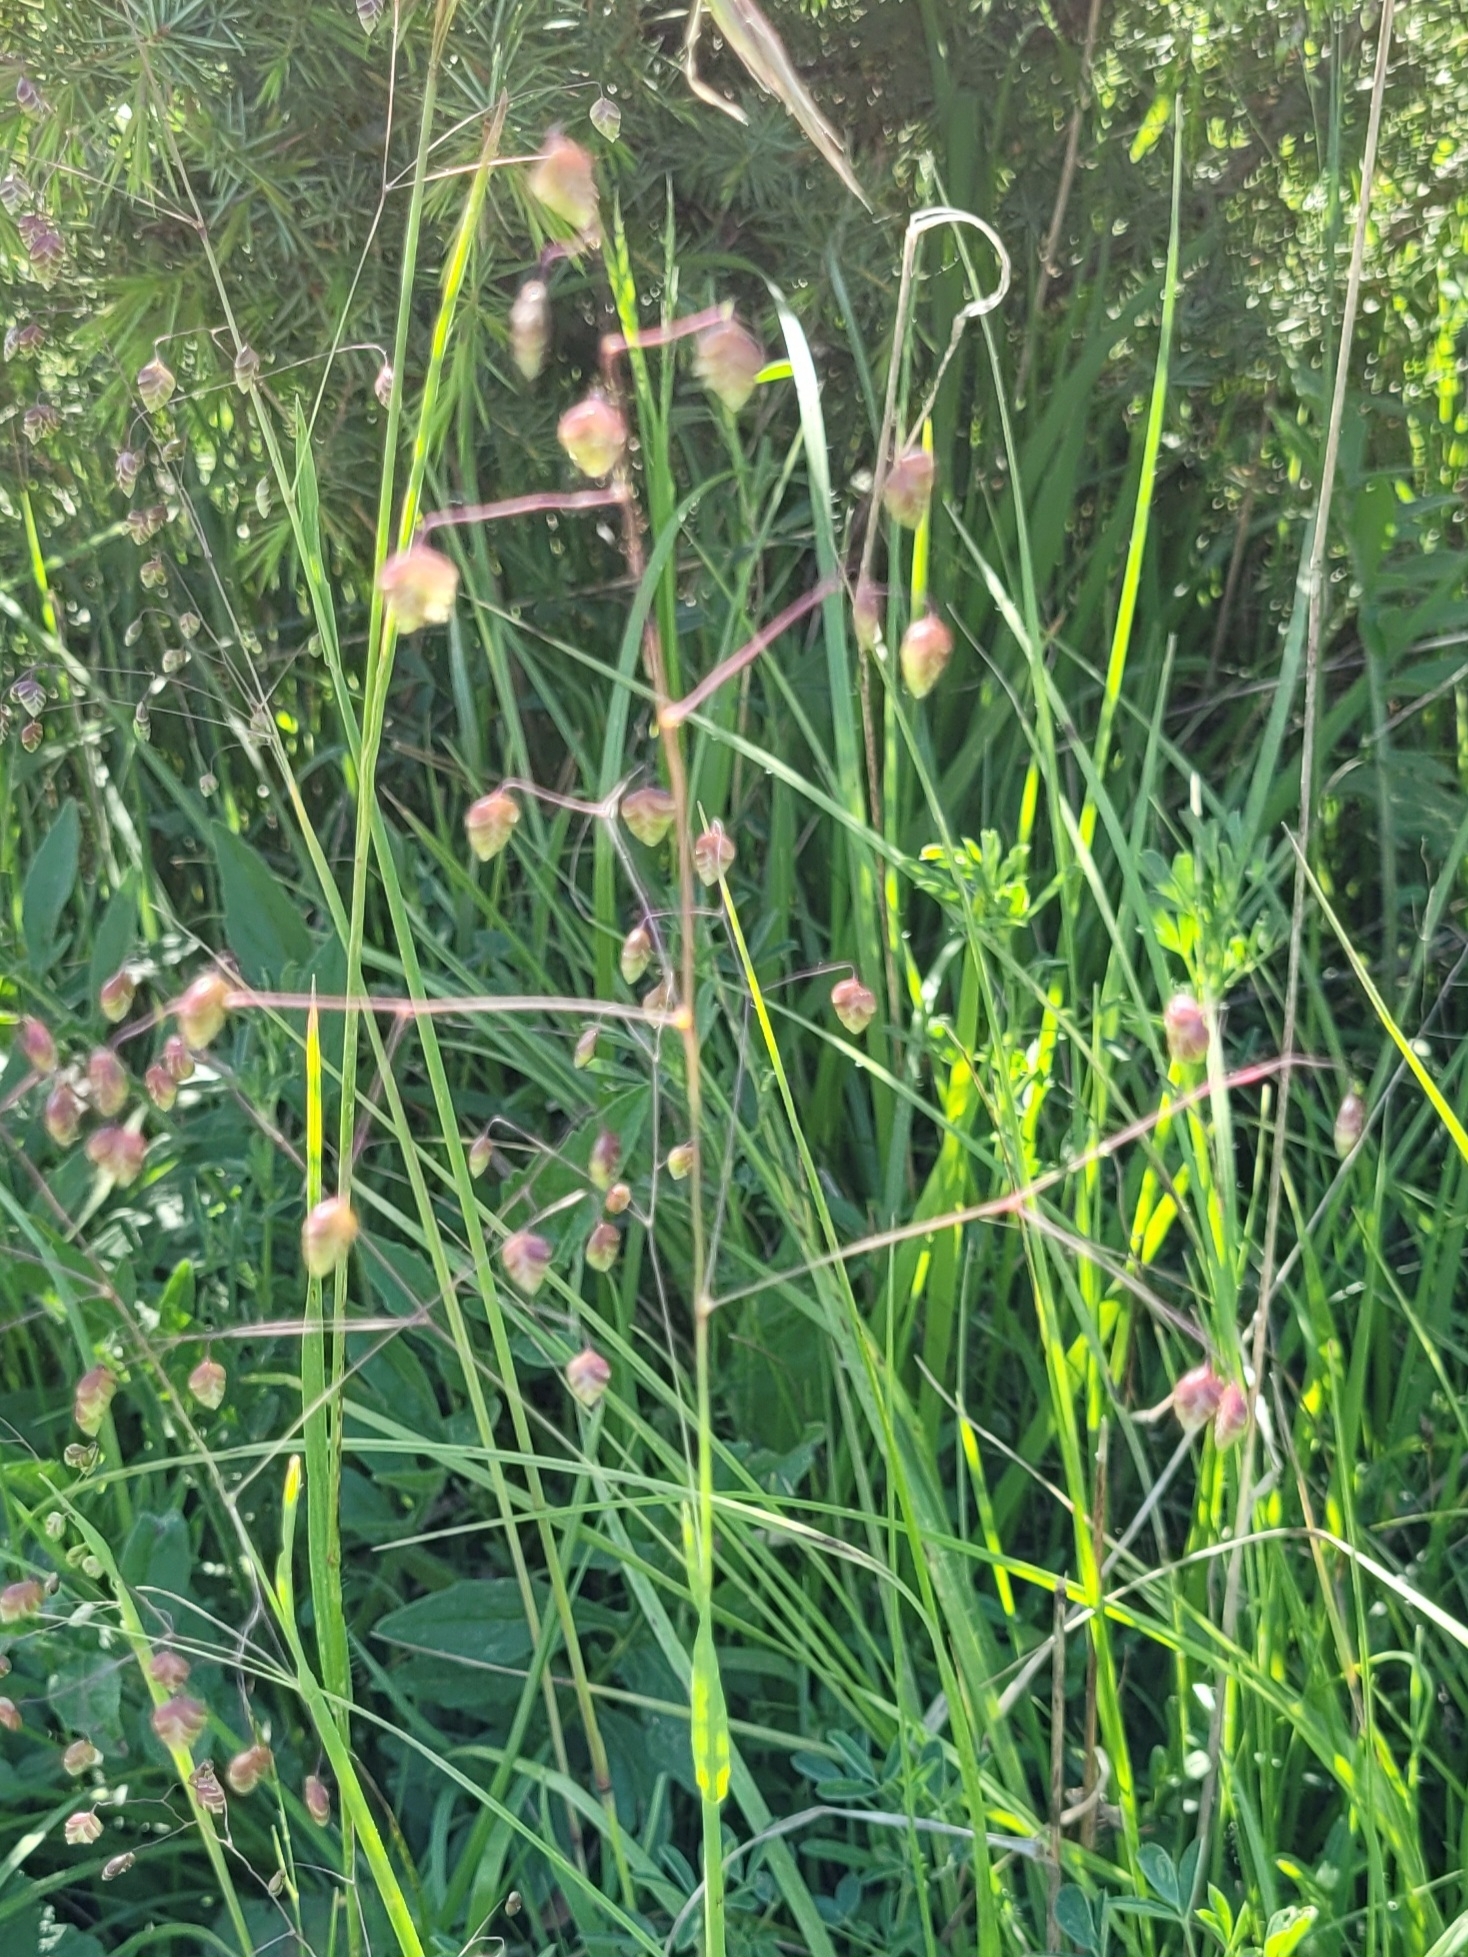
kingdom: Plantae
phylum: Tracheophyta
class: Liliopsida
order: Poales
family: Poaceae
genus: Briza
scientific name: Briza media
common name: Quaking grass
